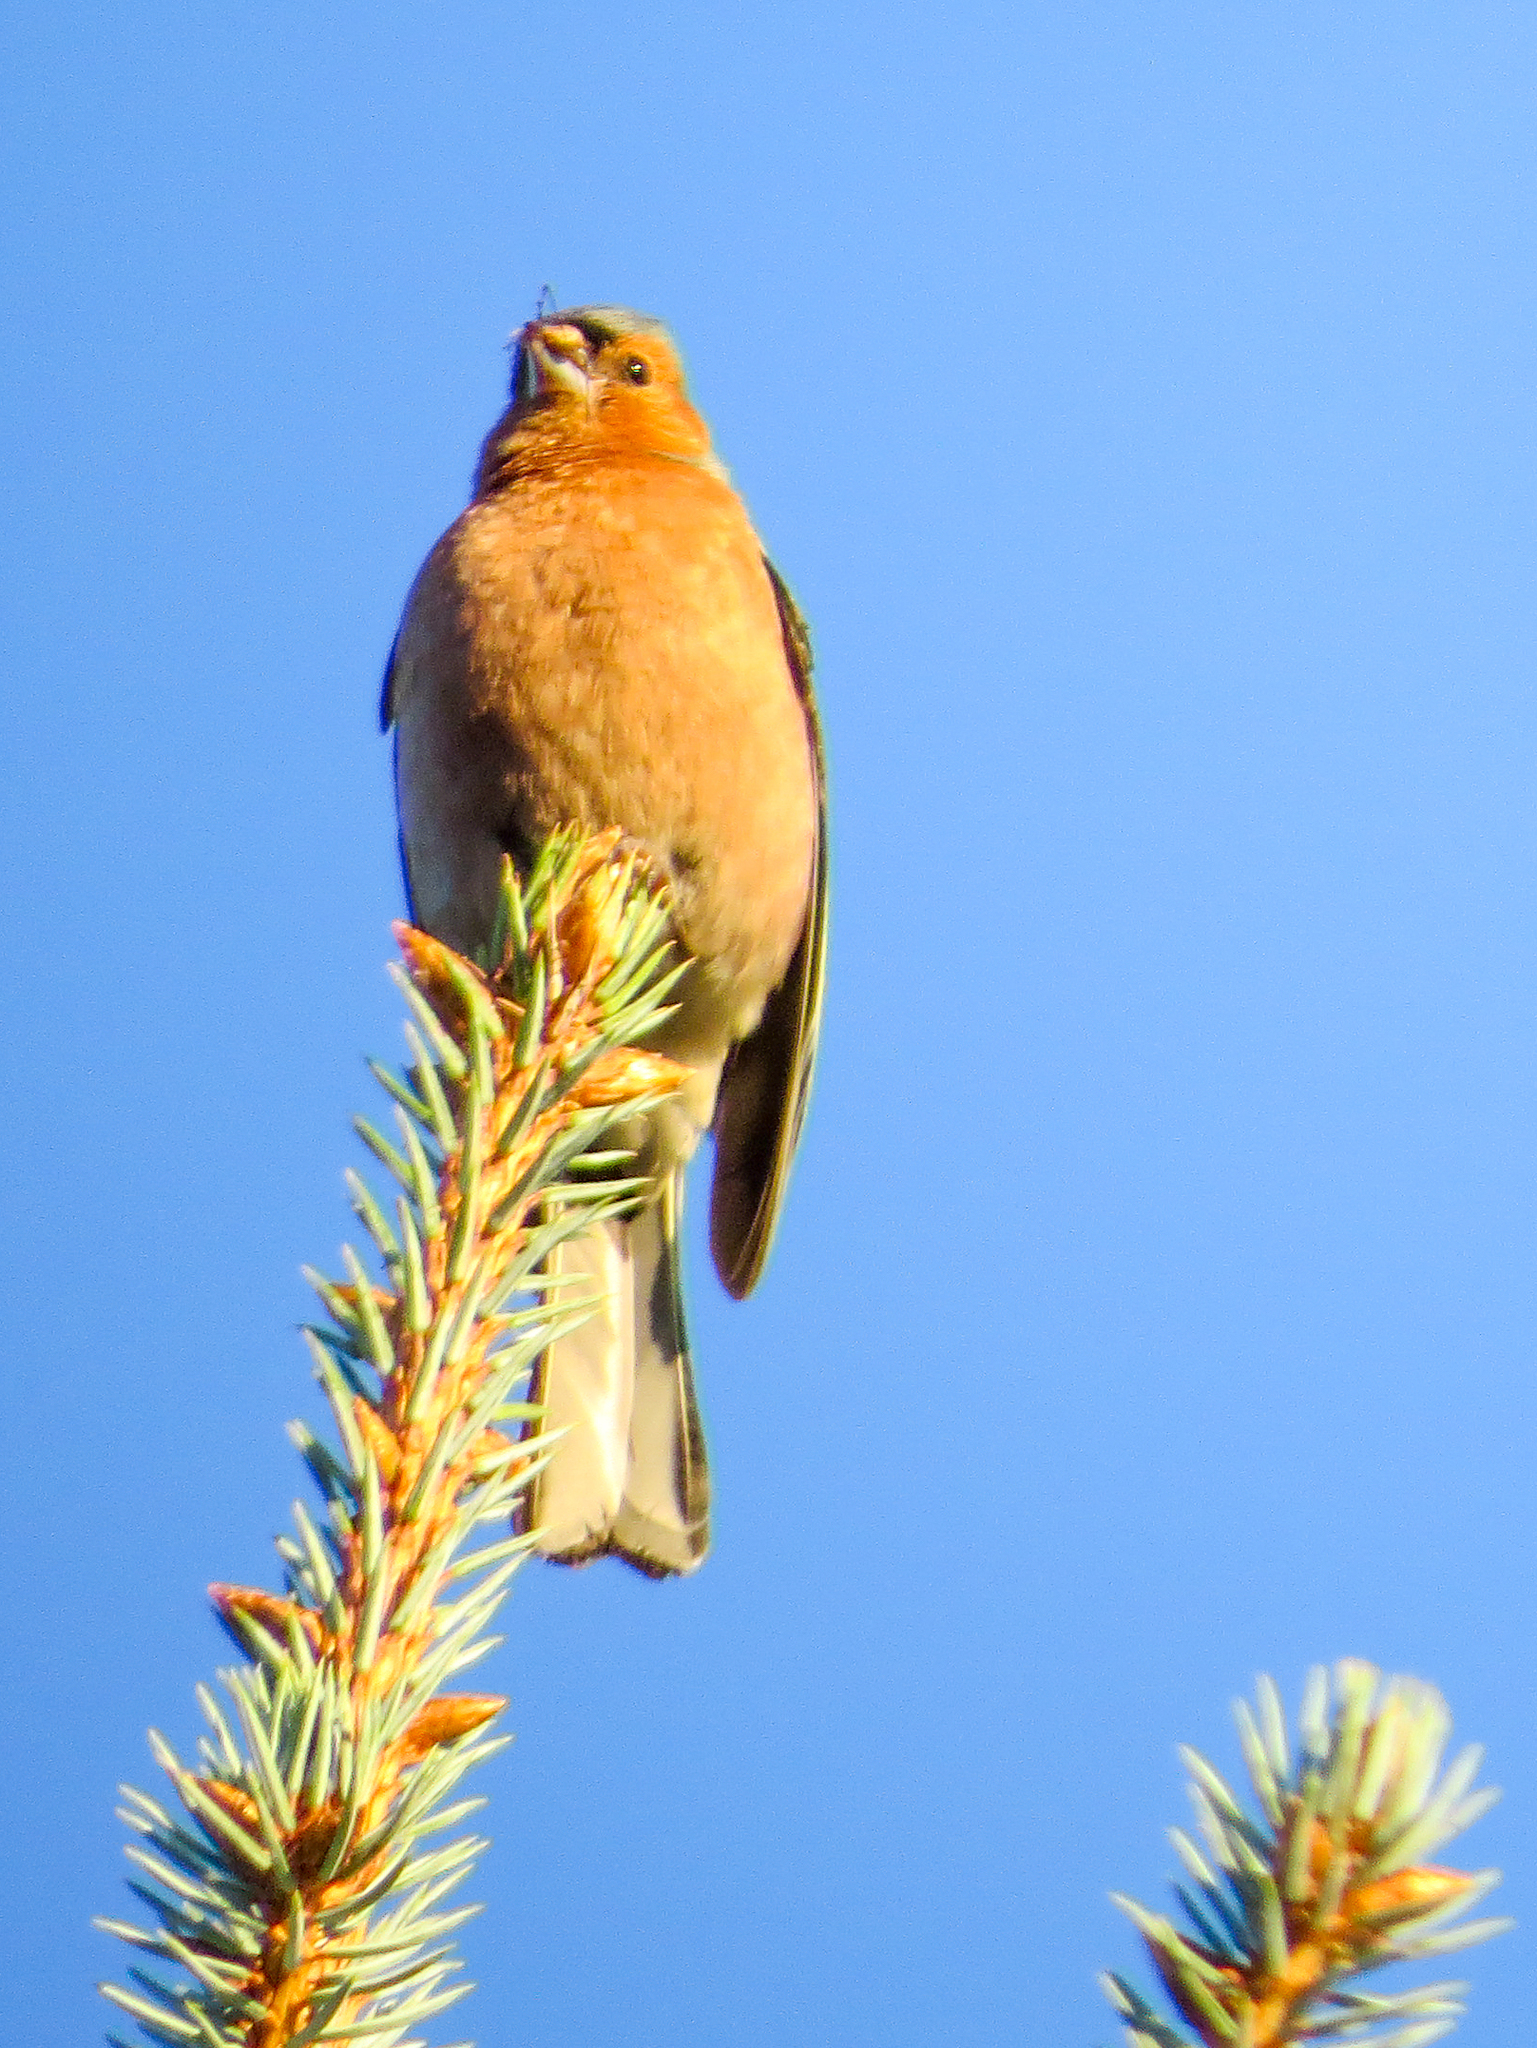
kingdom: Animalia
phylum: Chordata
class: Aves
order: Passeriformes
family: Fringillidae
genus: Fringilla
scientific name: Fringilla coelebs
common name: Common chaffinch
